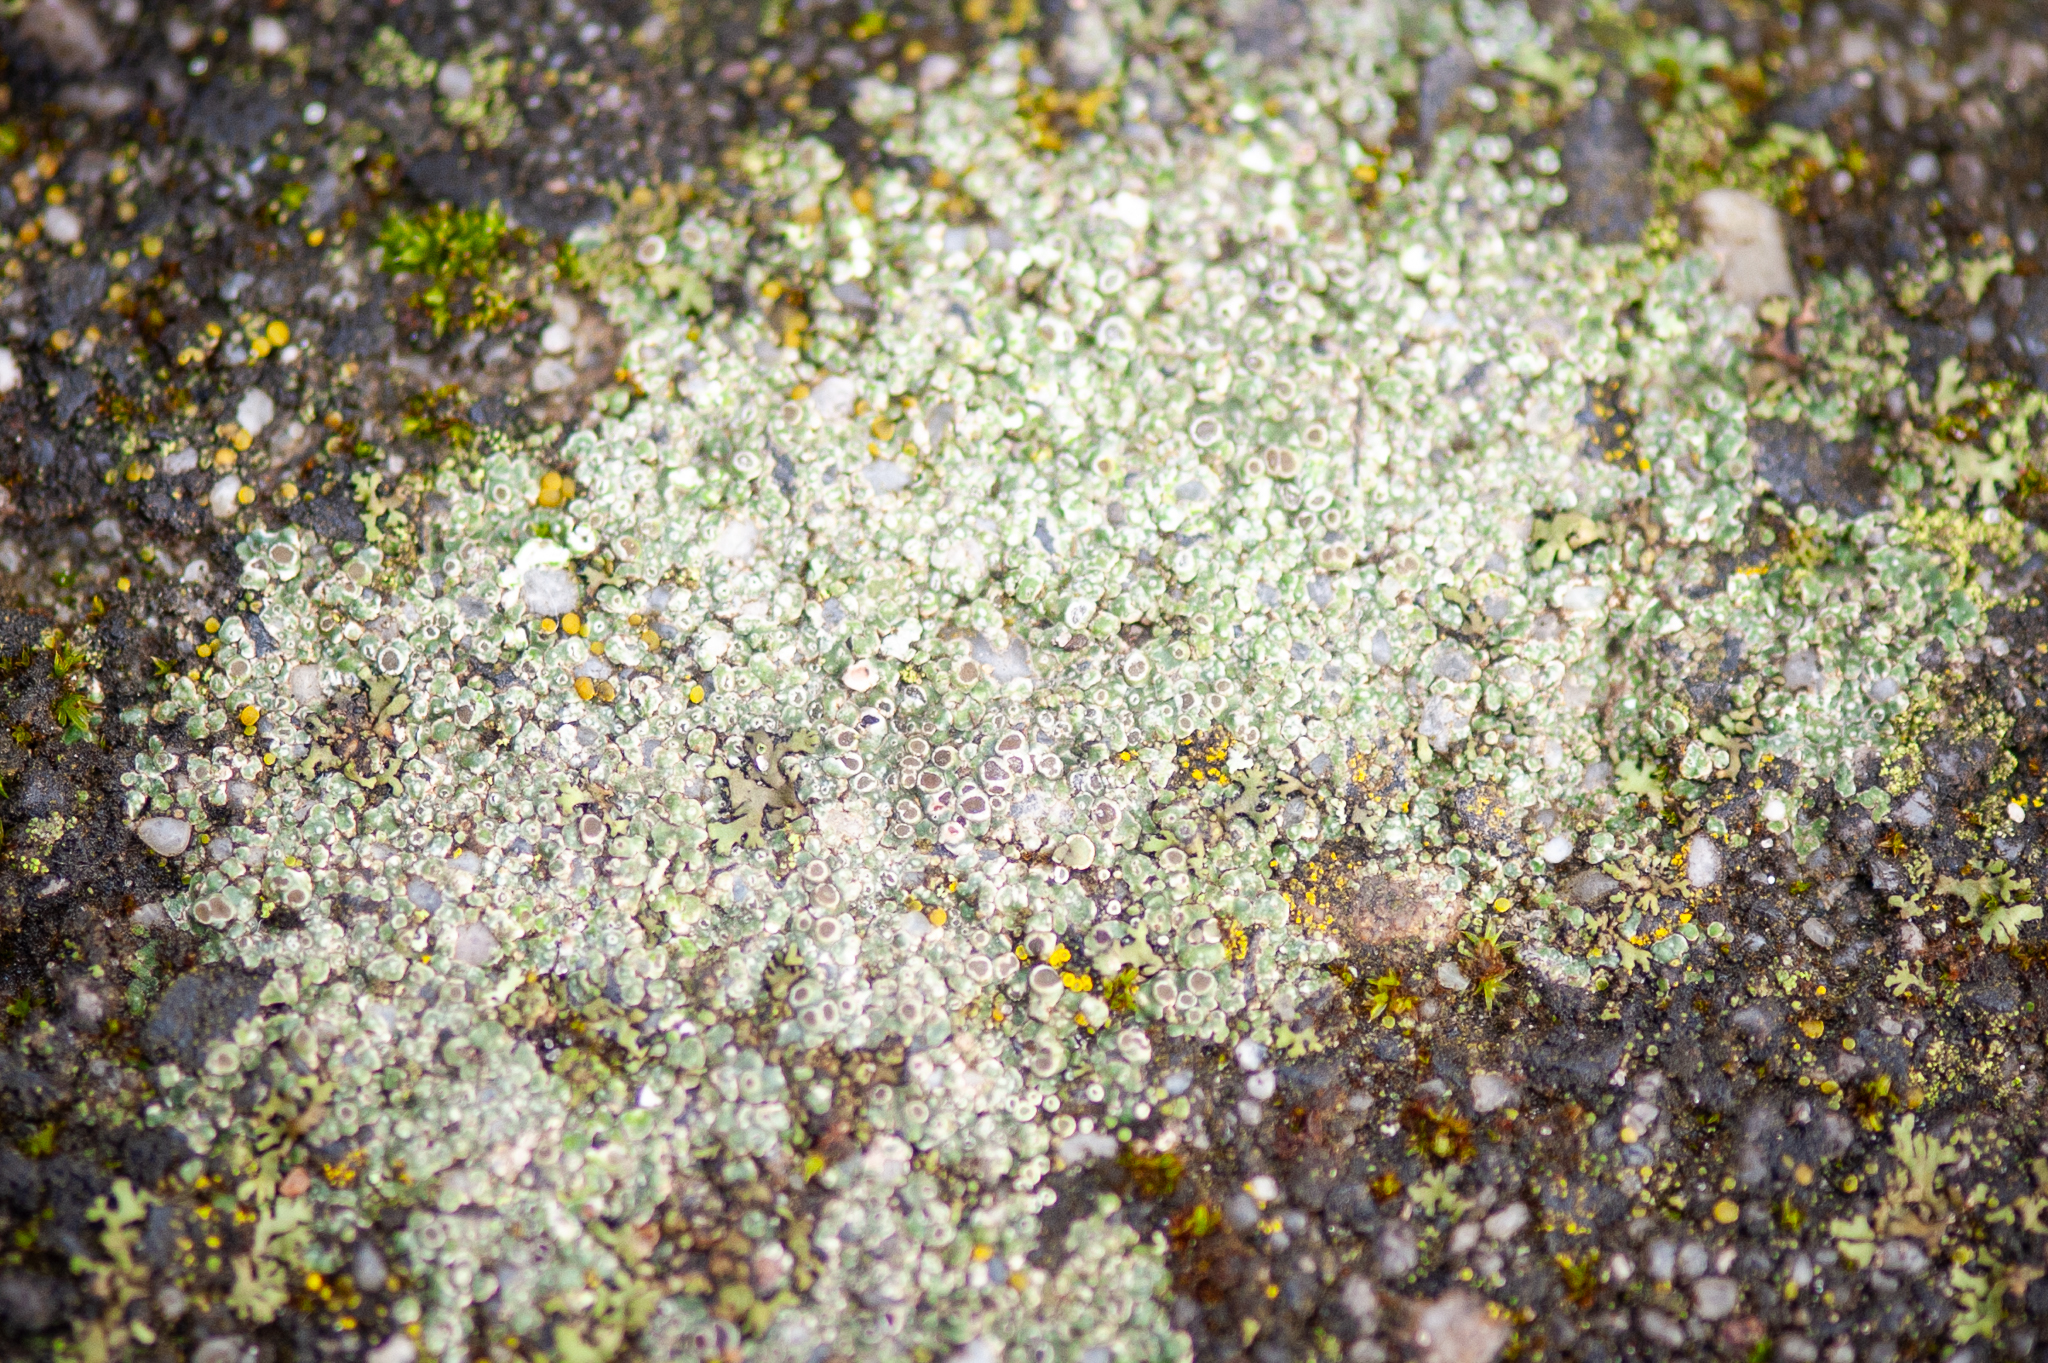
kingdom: Fungi
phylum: Ascomycota
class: Lecanoromycetes
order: Pertusariales
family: Megasporaceae
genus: Circinaria
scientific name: Circinaria contorta
